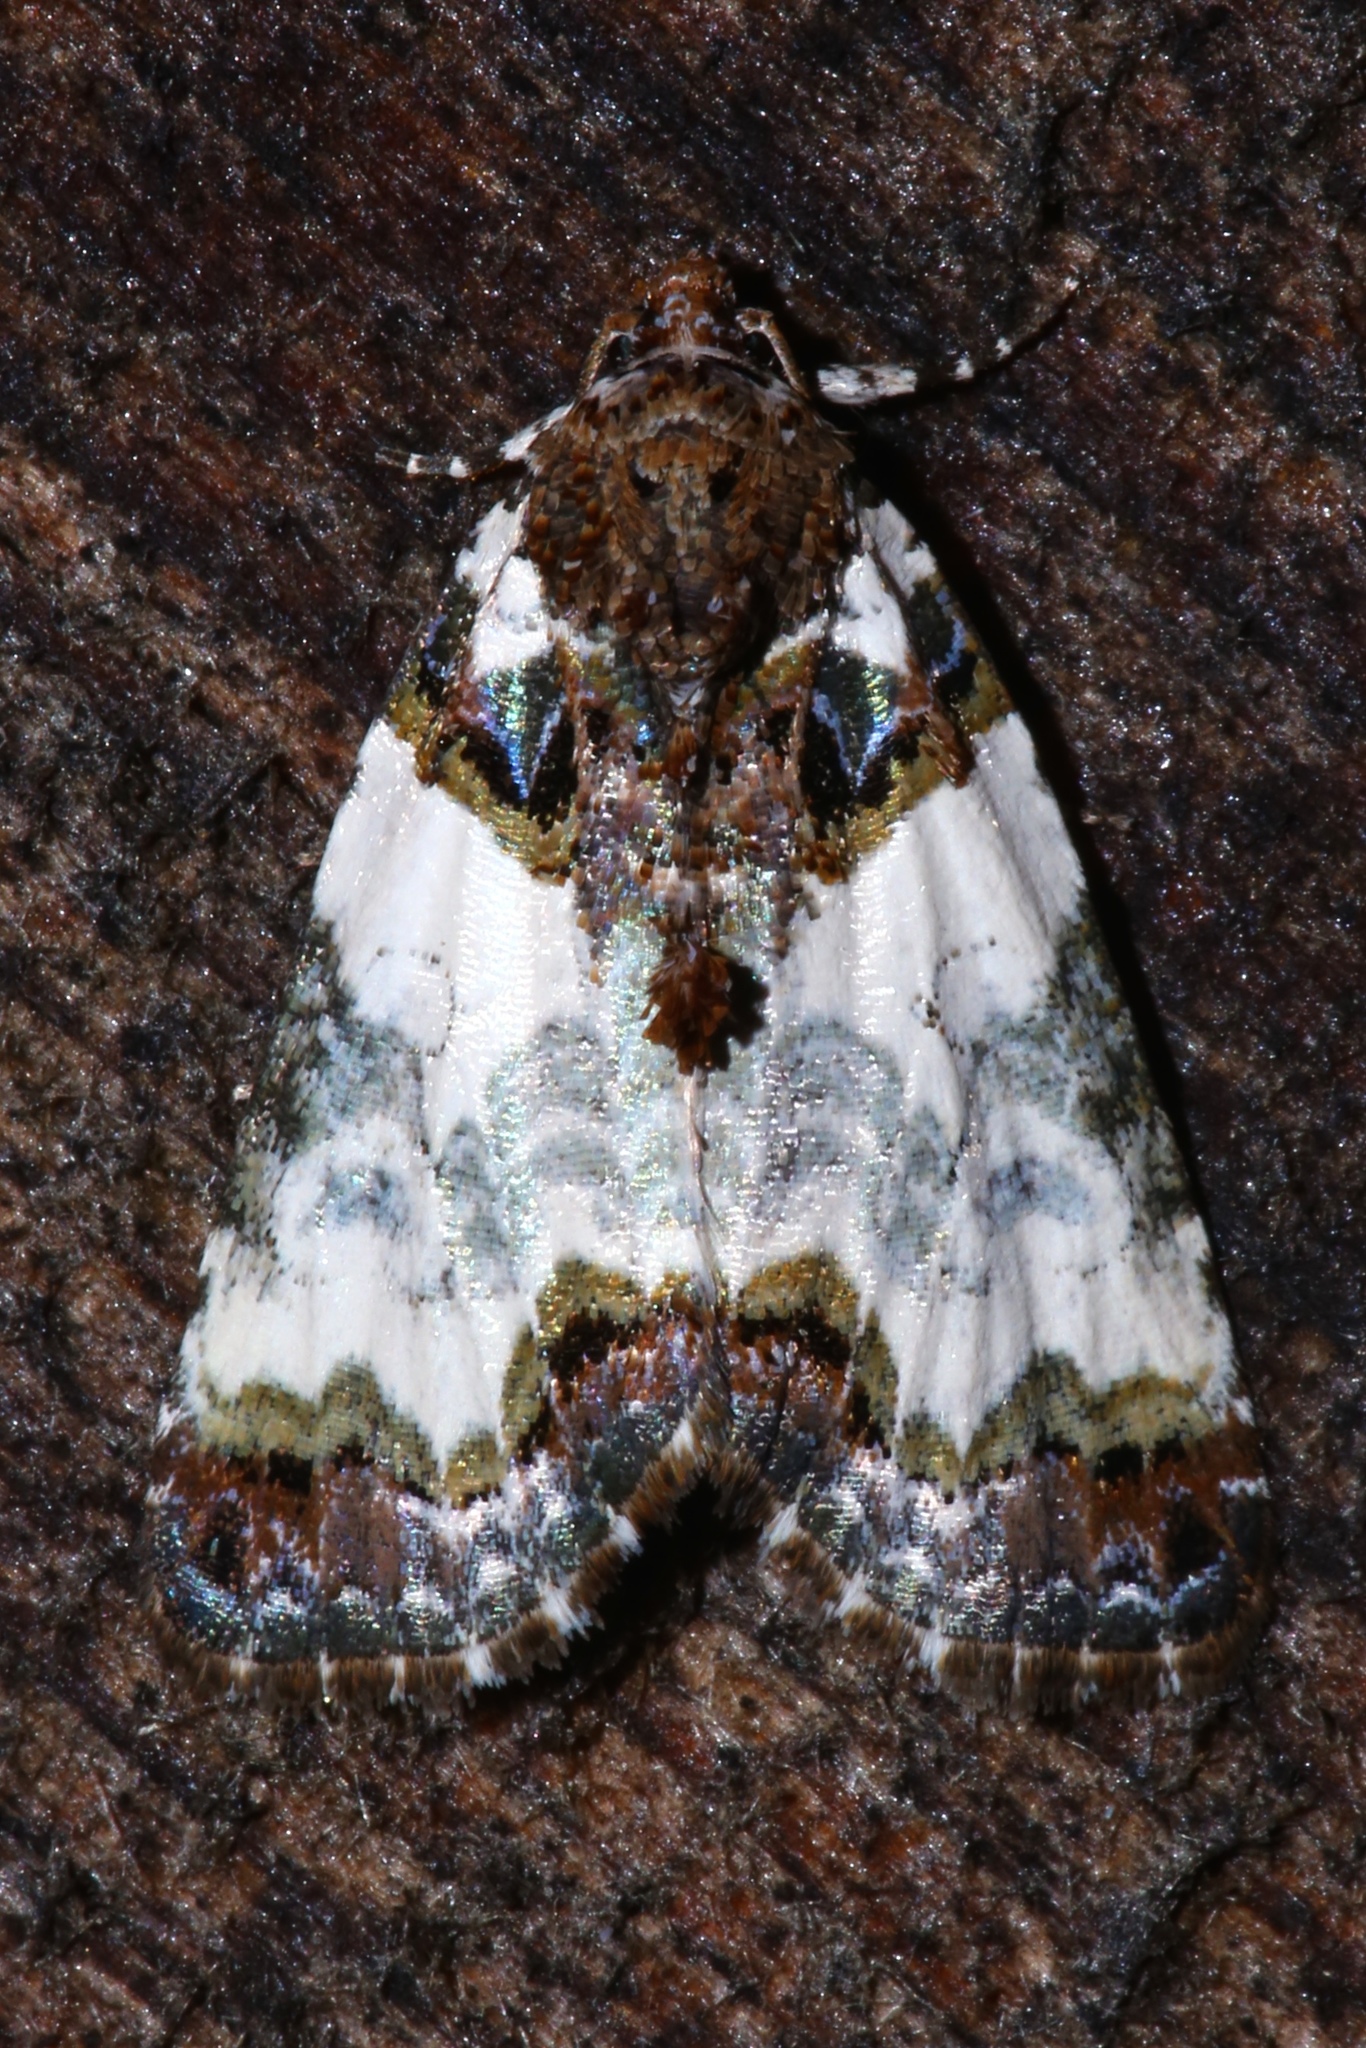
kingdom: Animalia
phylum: Arthropoda
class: Insecta
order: Lepidoptera
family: Noctuidae
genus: Cerma
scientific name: Cerma cerintha
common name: Tufted bird-dropping moth
